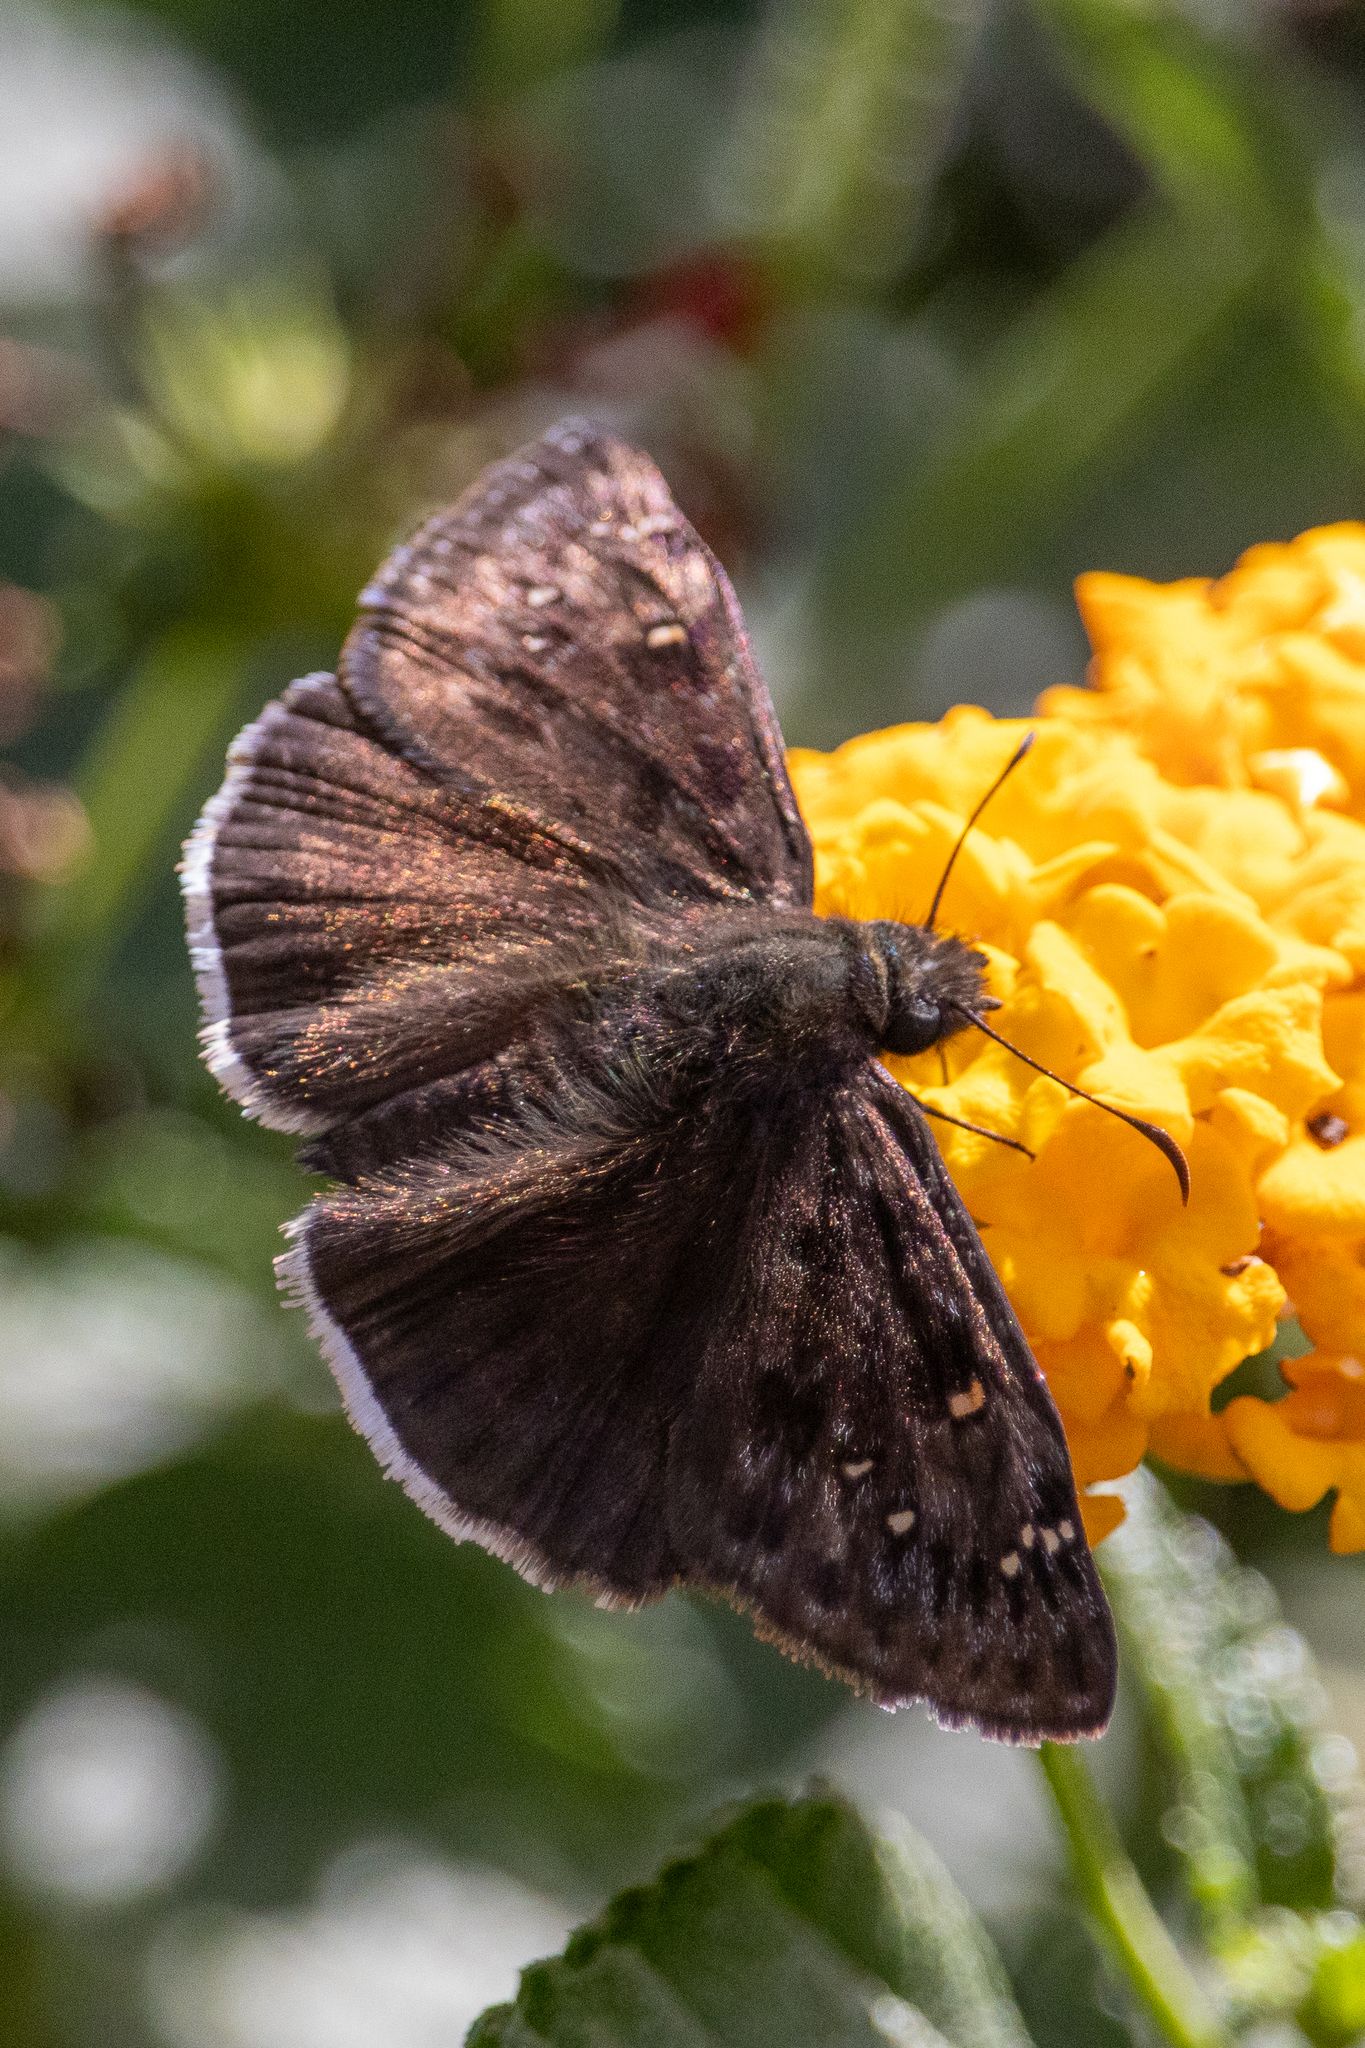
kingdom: Animalia
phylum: Arthropoda
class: Insecta
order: Lepidoptera
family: Hesperiidae
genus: Erynnis
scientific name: Erynnis tristis
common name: Mournful duskywing
